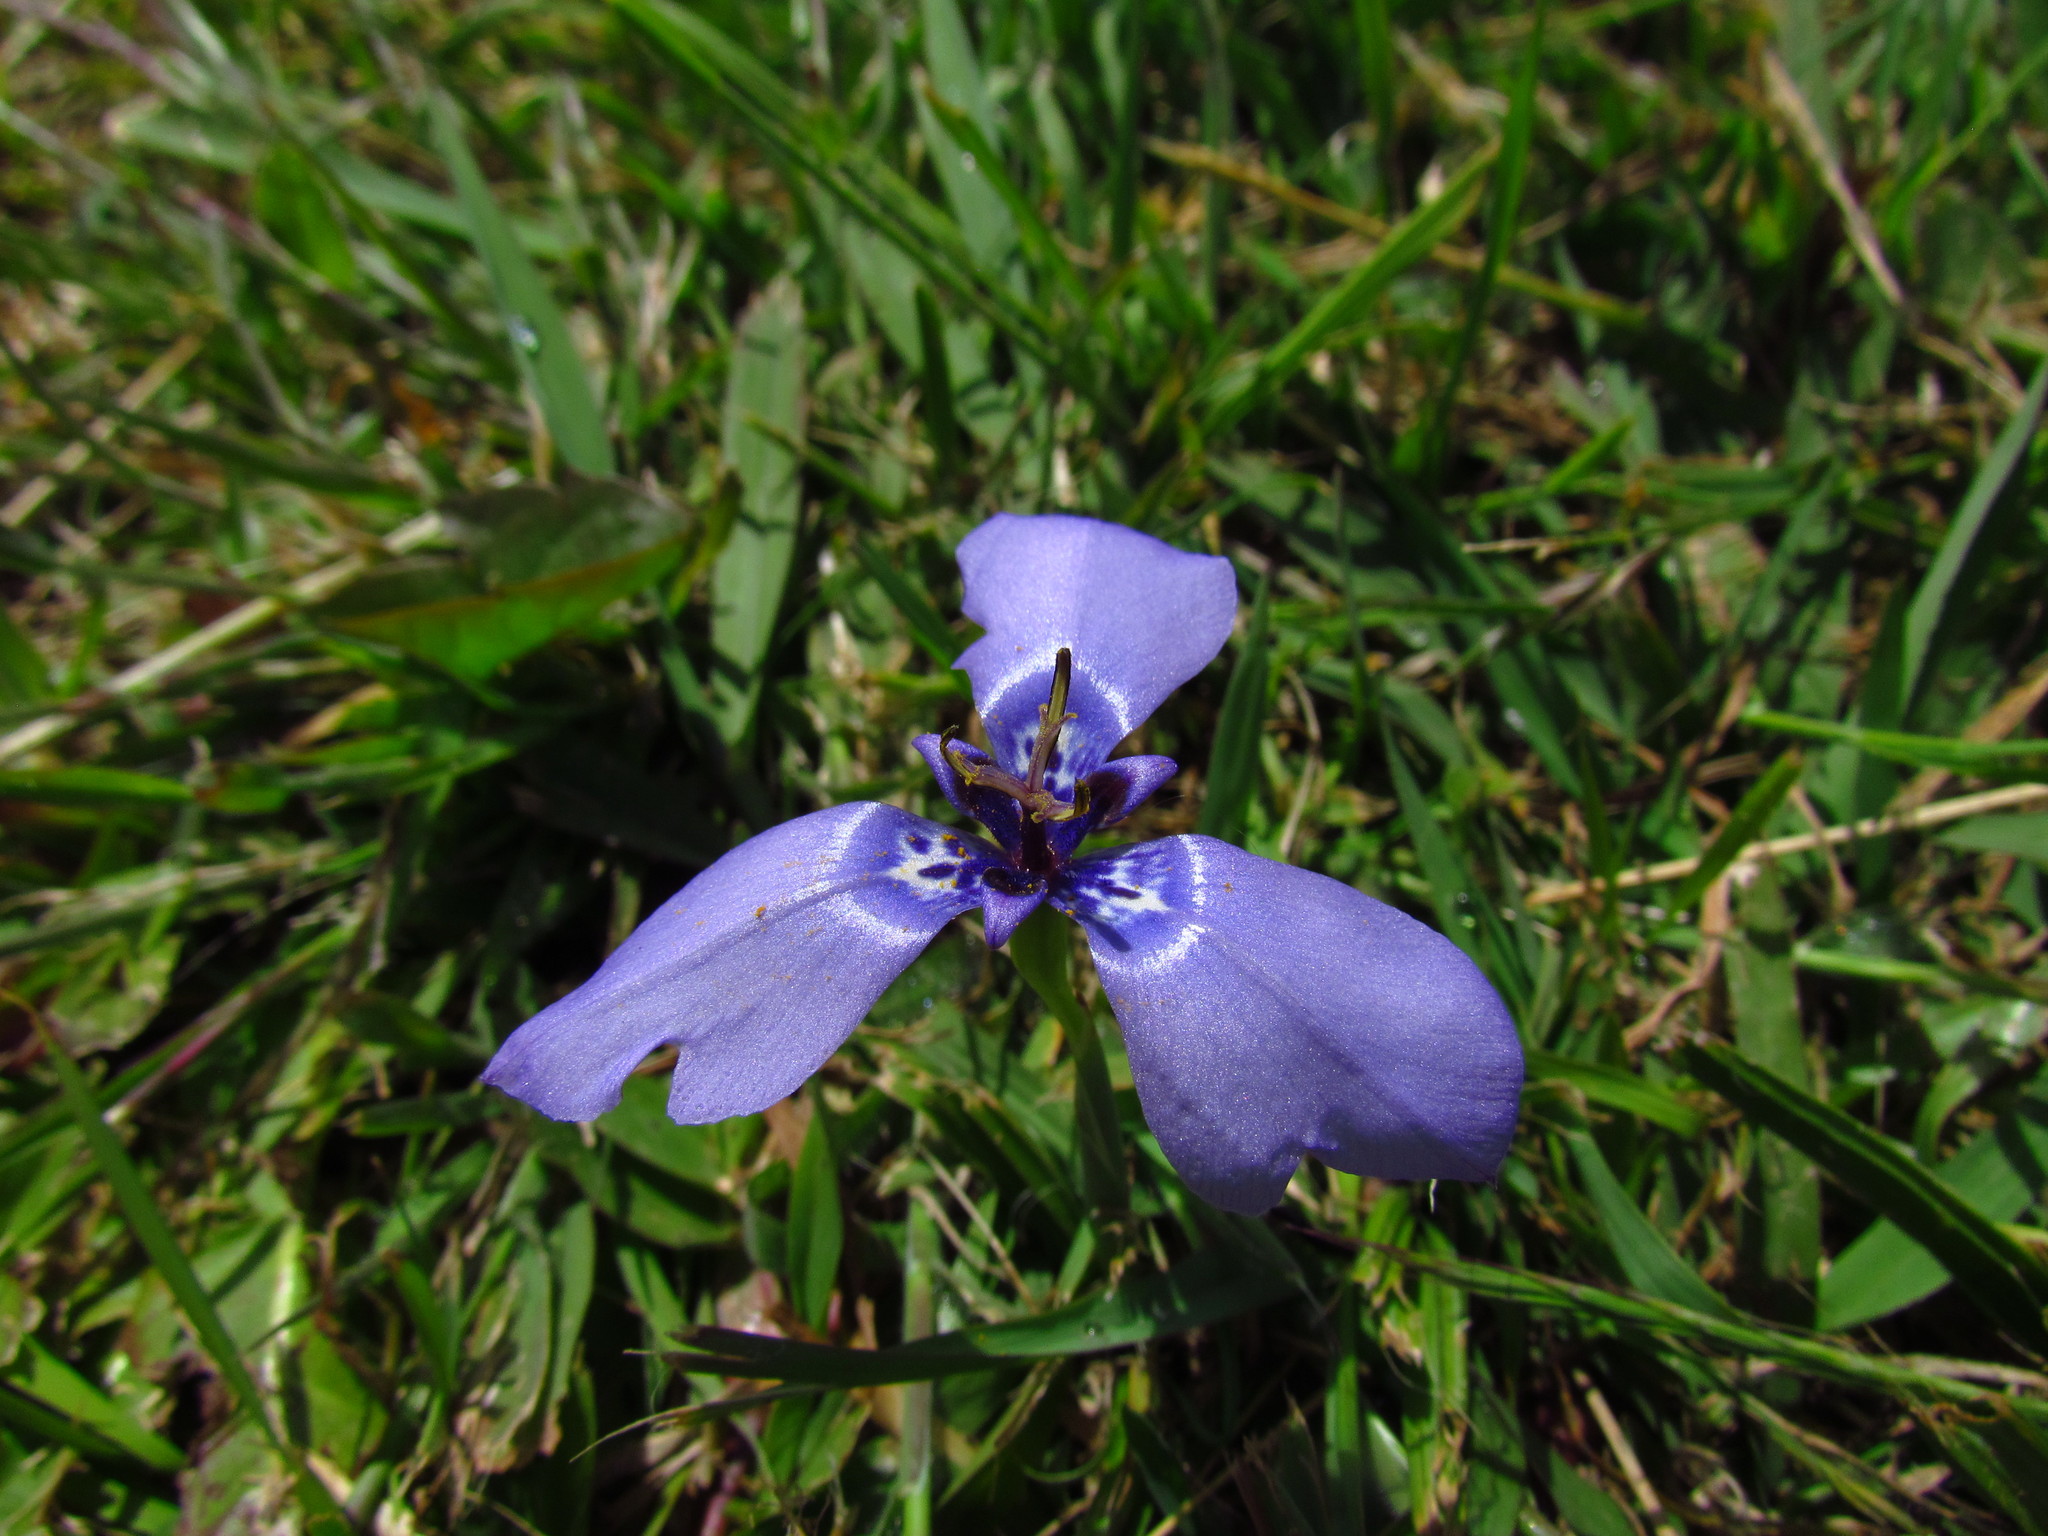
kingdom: Plantae
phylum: Tracheophyta
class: Liliopsida
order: Asparagales
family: Iridaceae
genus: Herbertia
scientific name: Herbertia lahue
